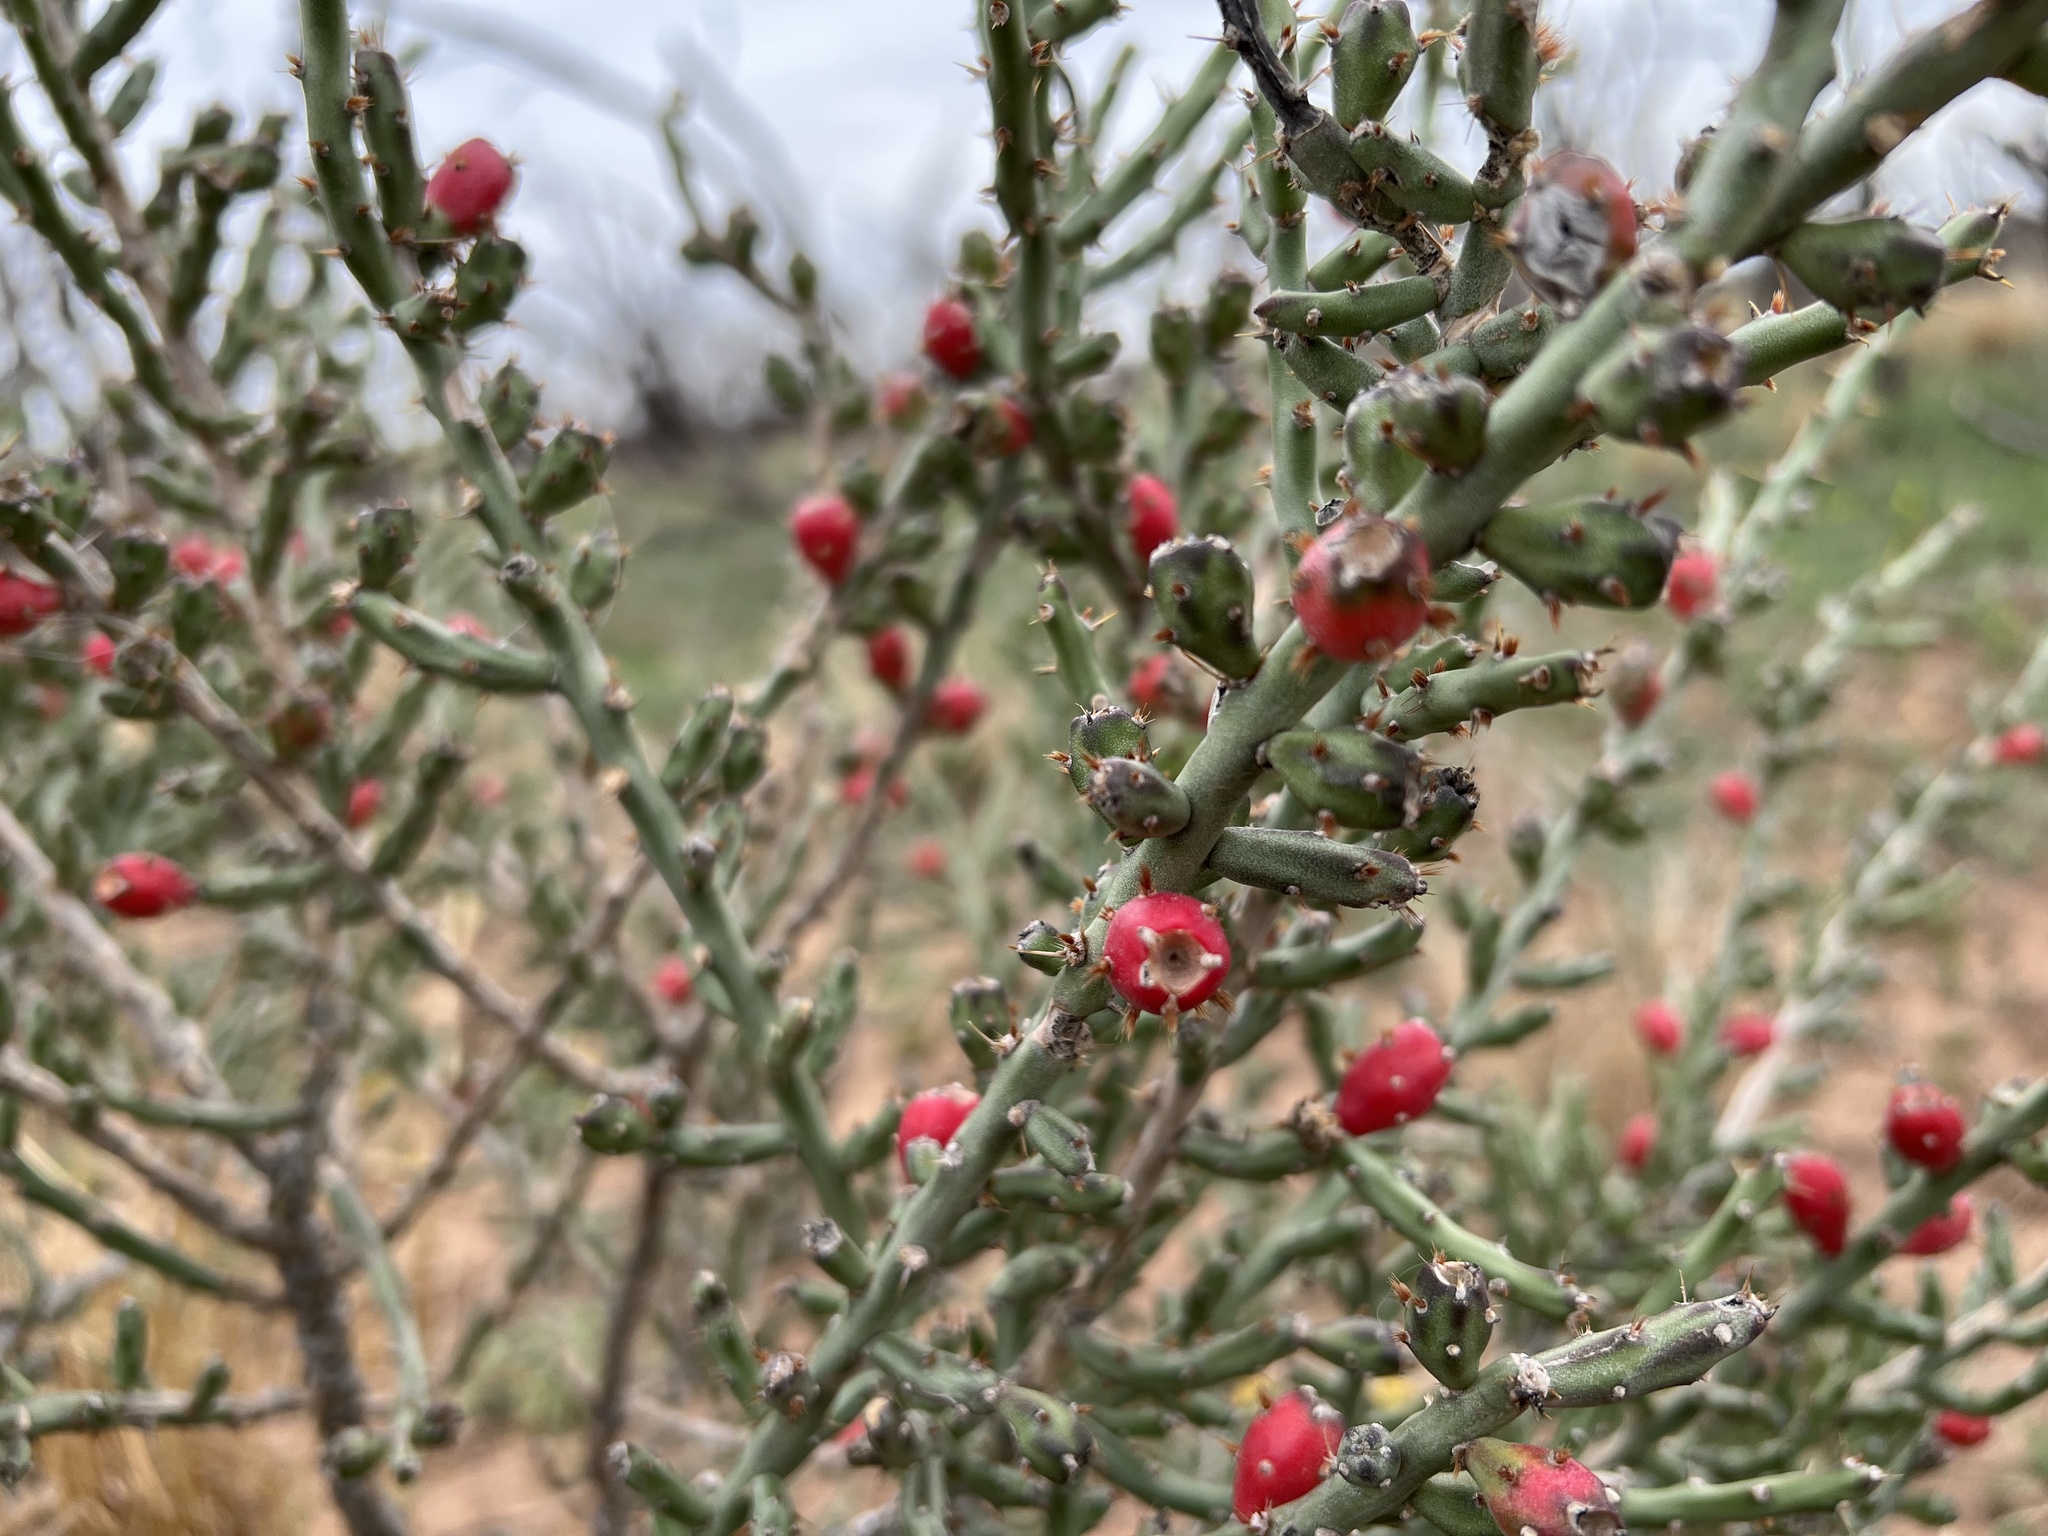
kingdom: Plantae
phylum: Tracheophyta
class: Magnoliopsida
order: Caryophyllales
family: Cactaceae
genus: Cylindropuntia
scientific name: Cylindropuntia leptocaulis
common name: Christmas cactus
